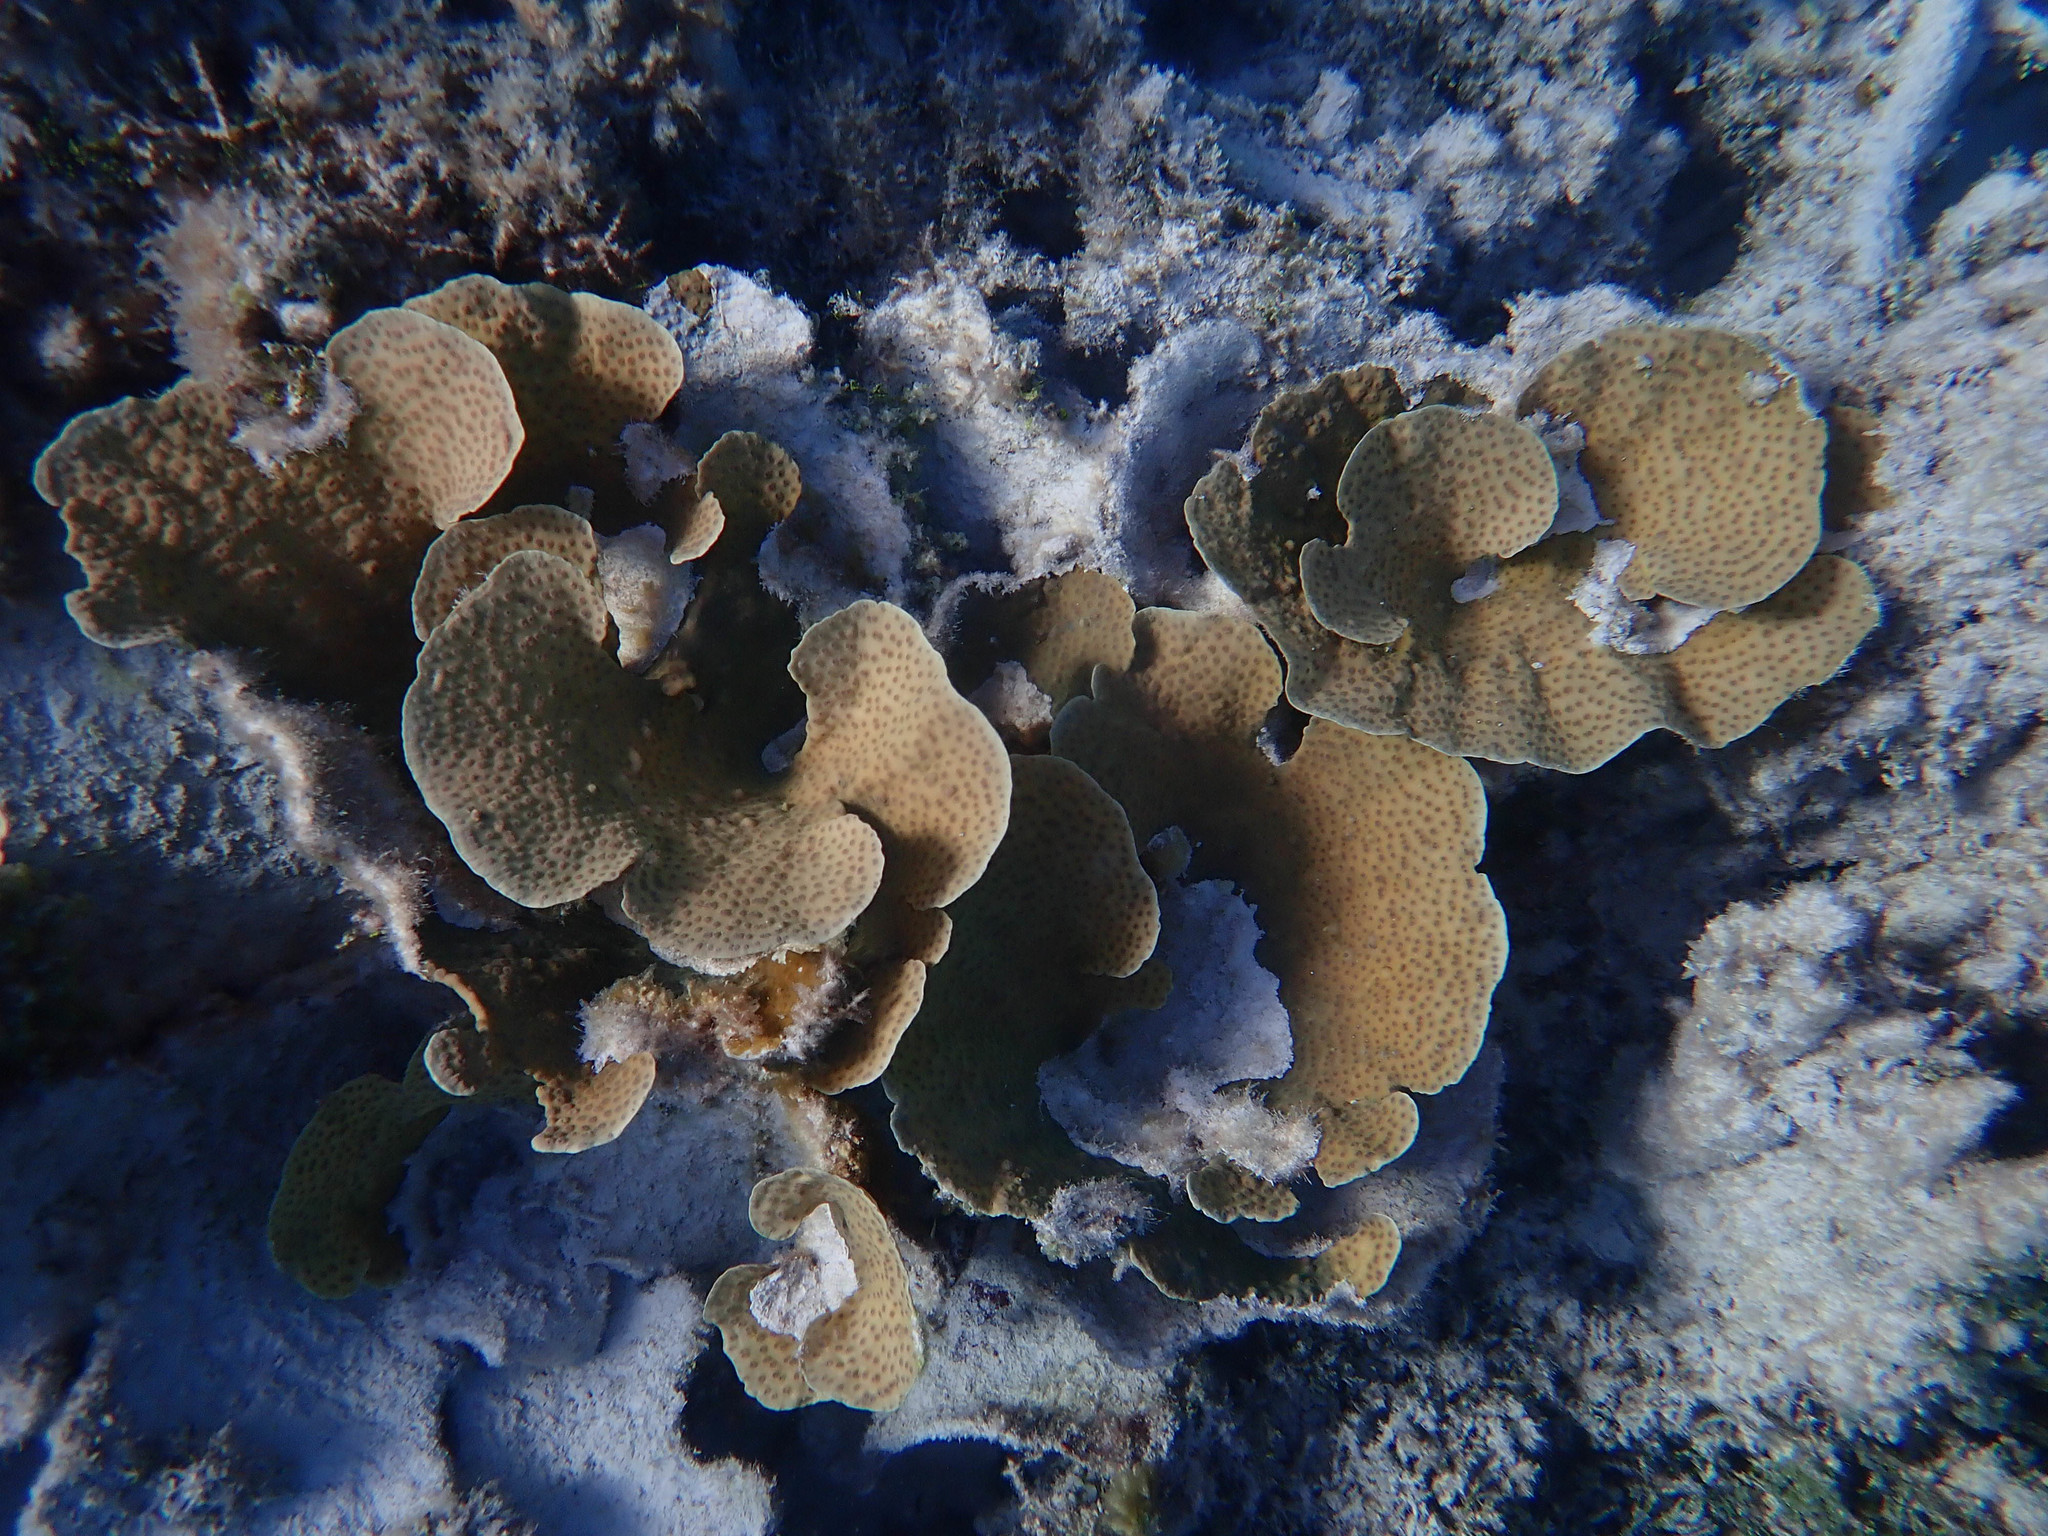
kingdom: Animalia
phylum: Cnidaria
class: Anthozoa
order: Scleractinia
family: Merulinidae
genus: Echinopora
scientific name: Echinopora lamellosa
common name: Hedgehog coral
